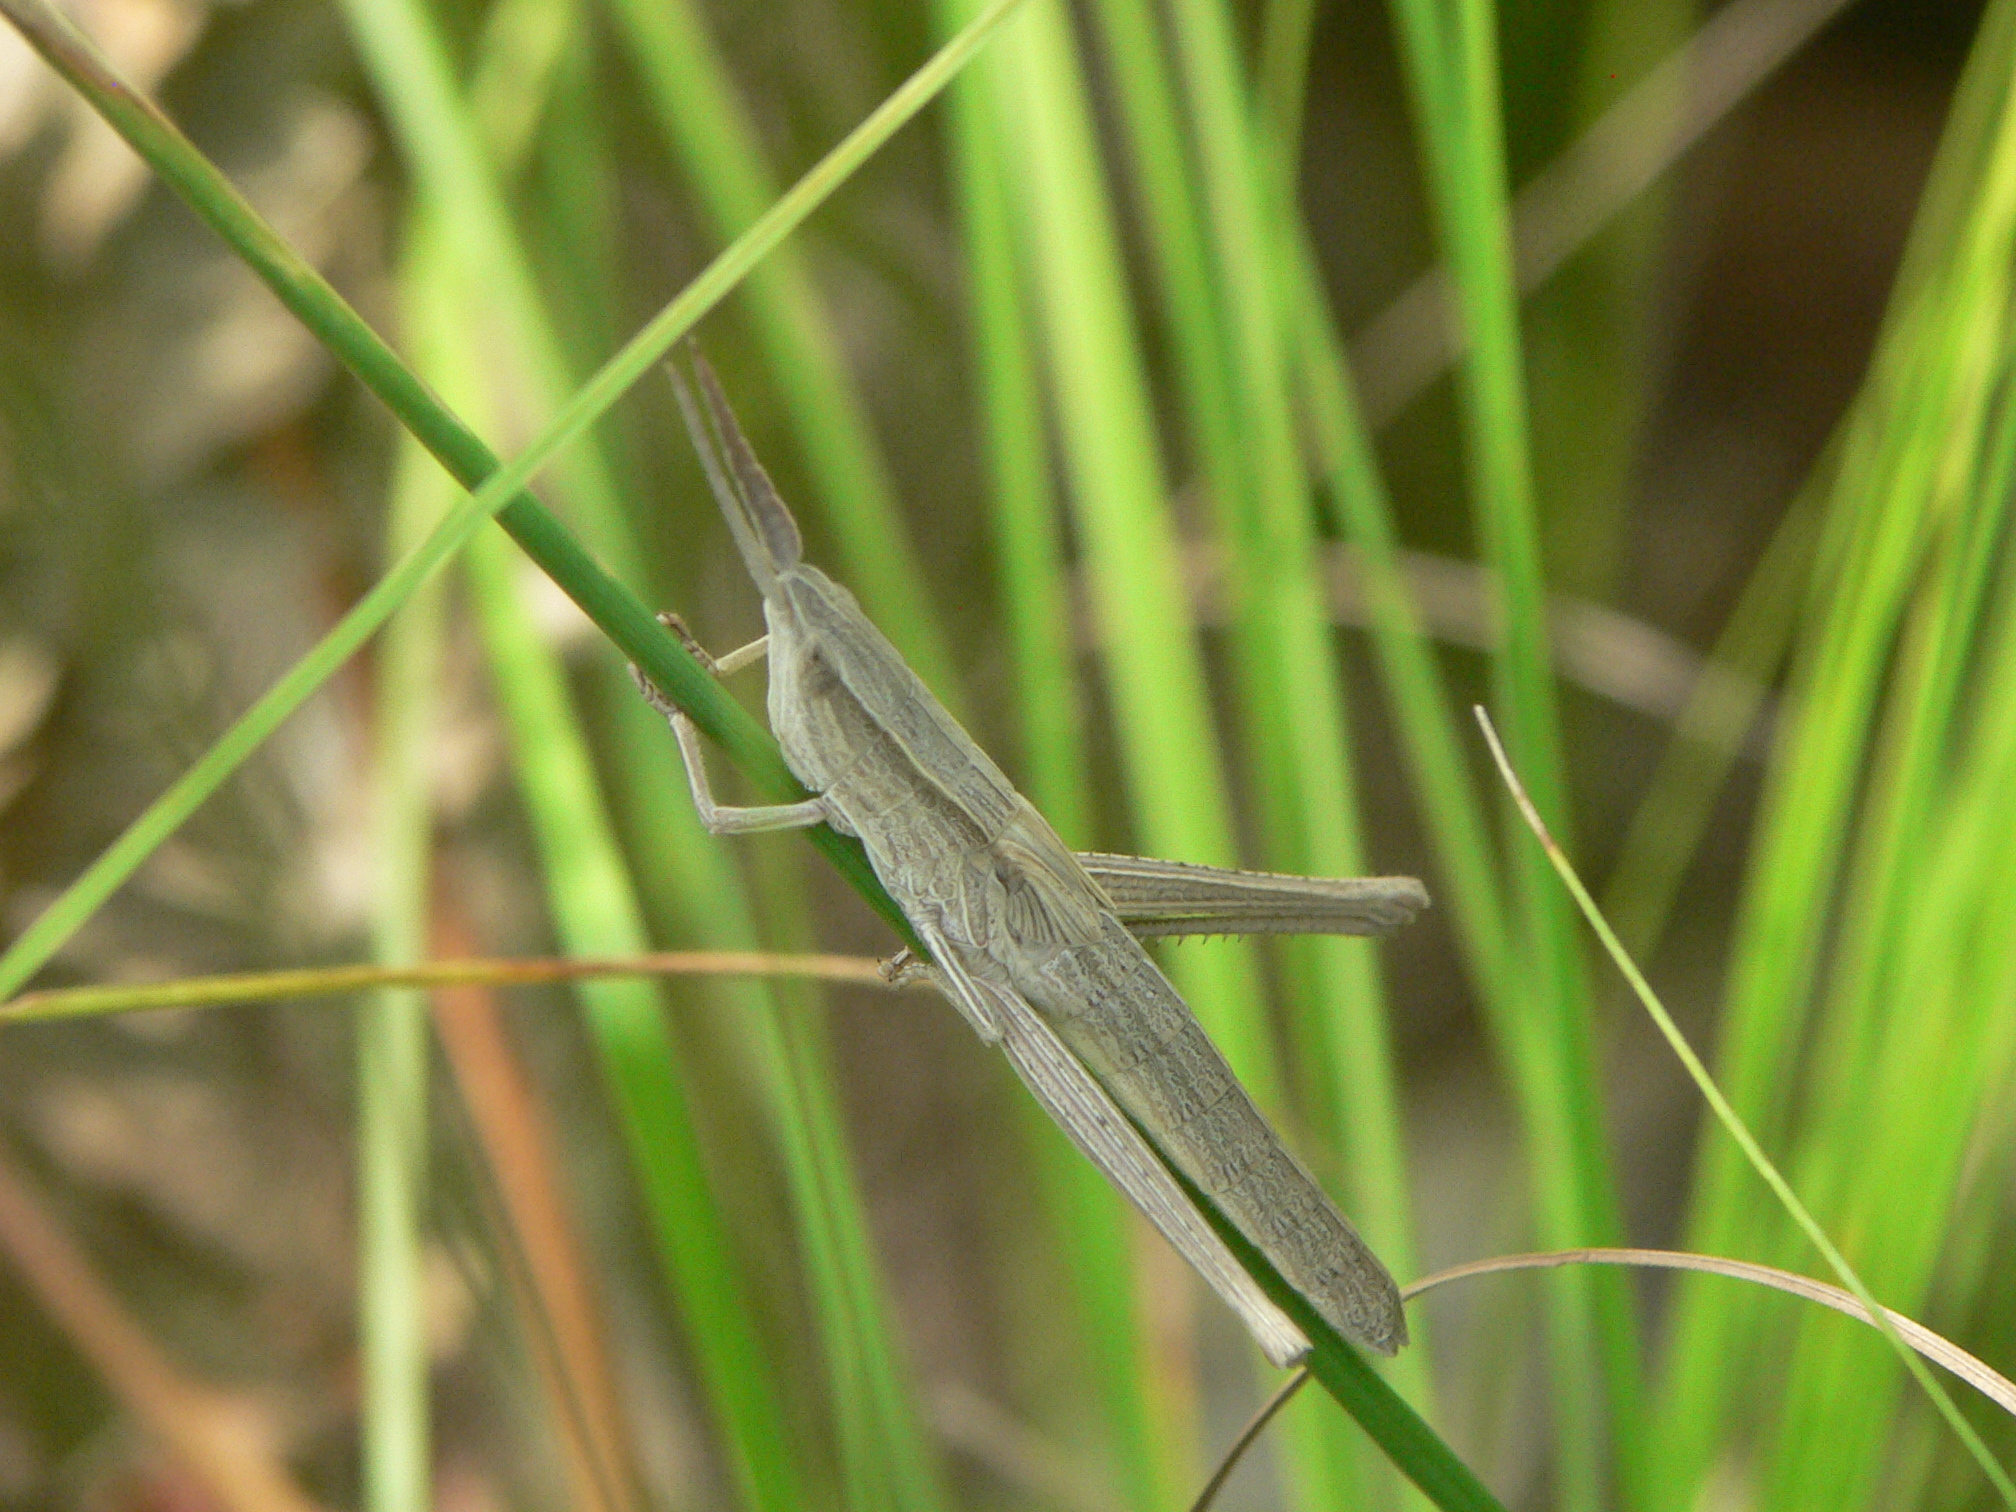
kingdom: Animalia
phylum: Arthropoda
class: Insecta
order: Orthoptera
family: Acrididae
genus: Pseudopomala
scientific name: Pseudopomala brachyptera
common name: Bunchgrass grasshopper
